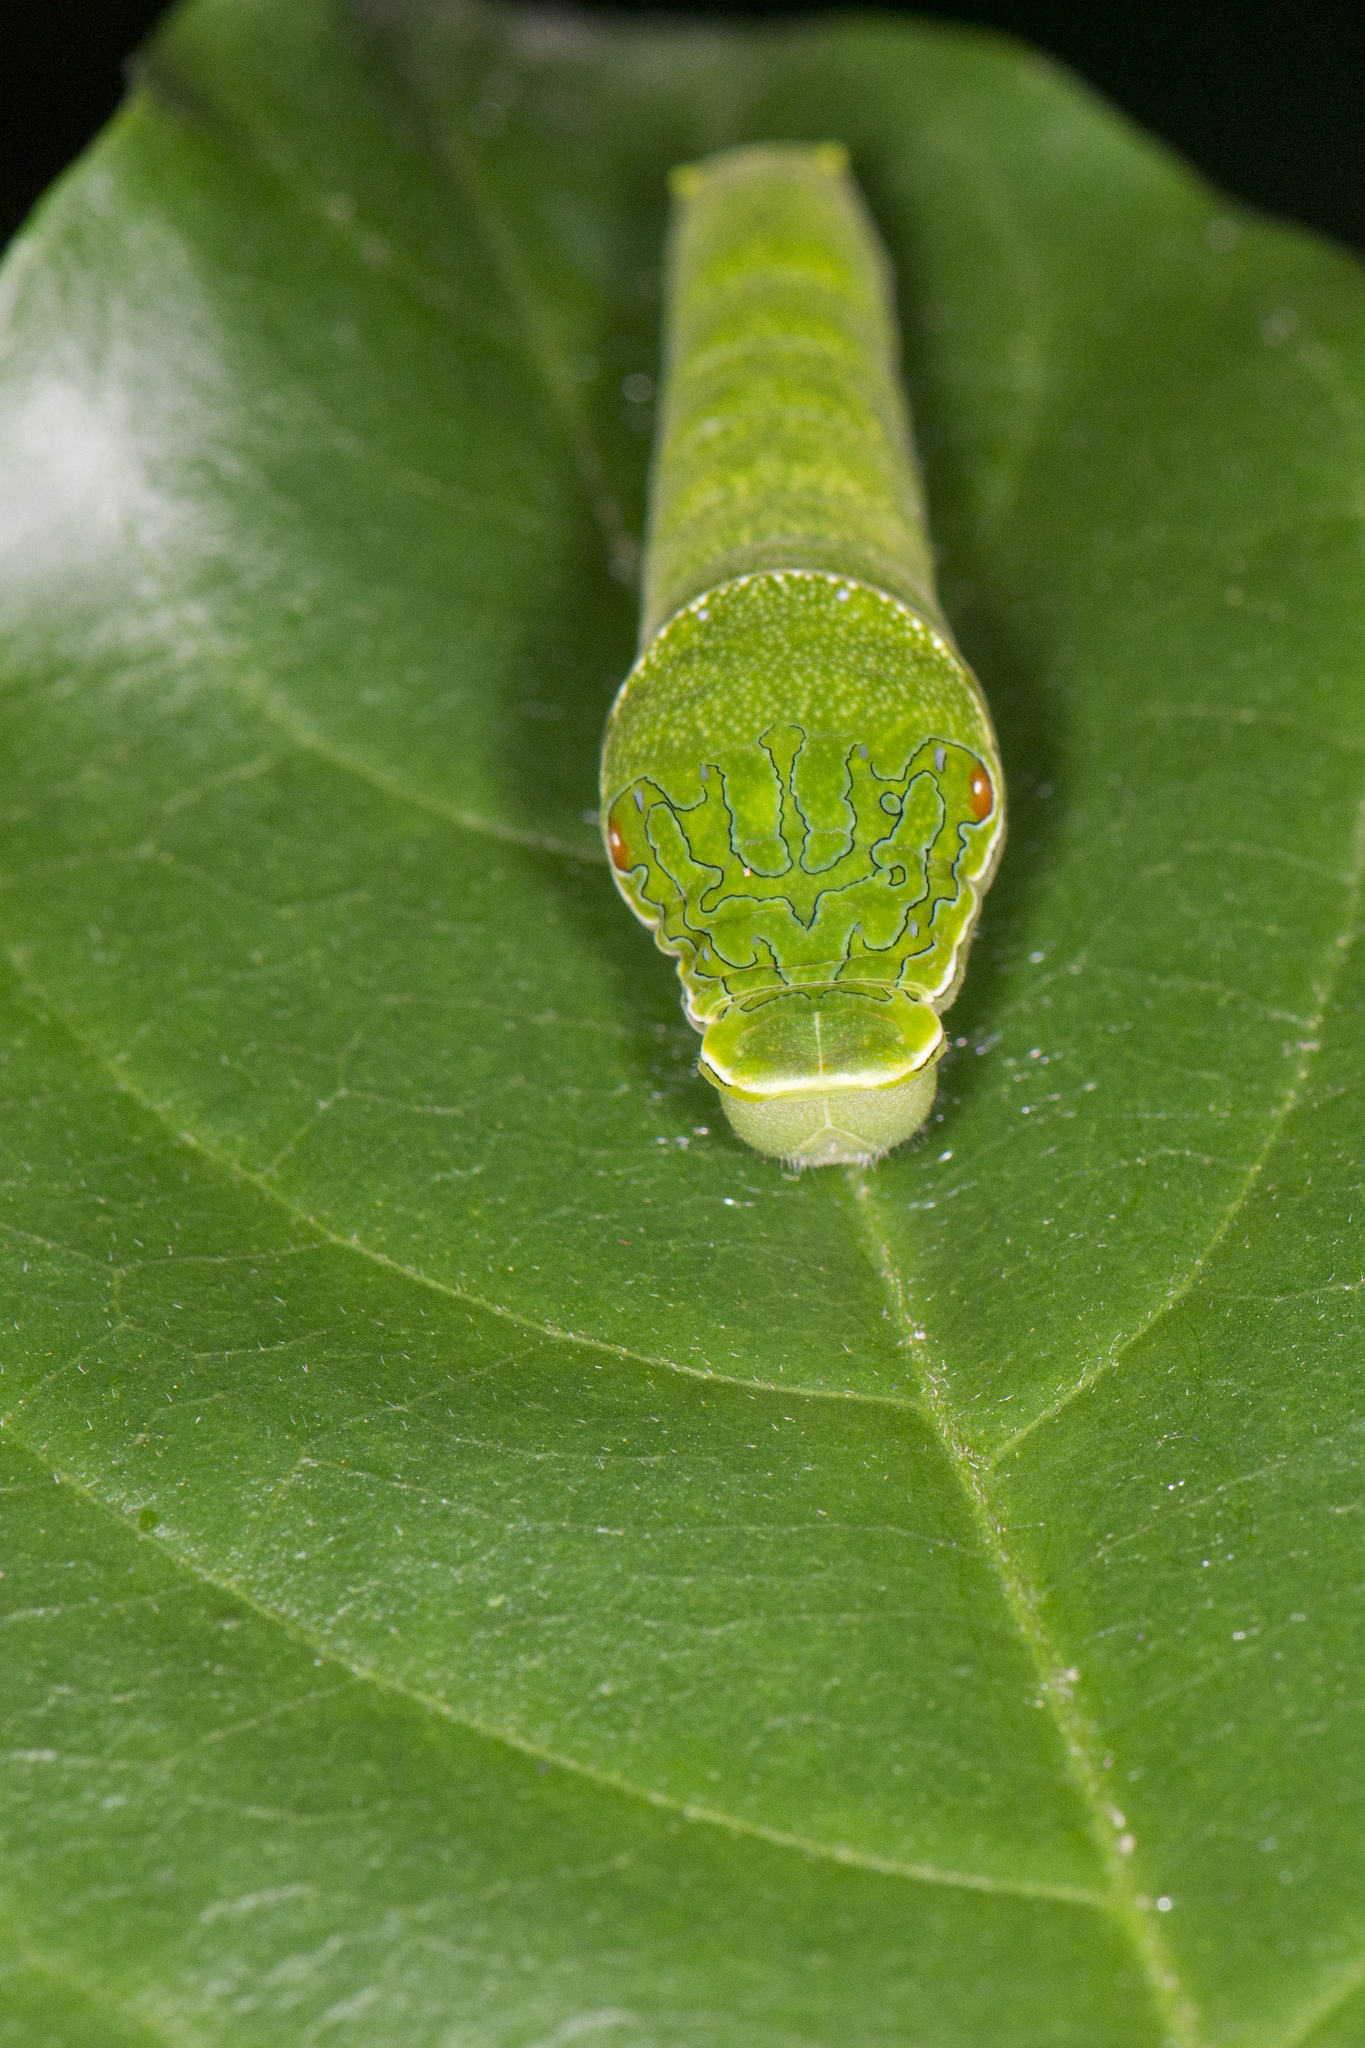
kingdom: Animalia
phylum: Arthropoda
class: Insecta
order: Lepidoptera
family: Papilionidae
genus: Papilio
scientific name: Papilio paris
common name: Paris peacock
